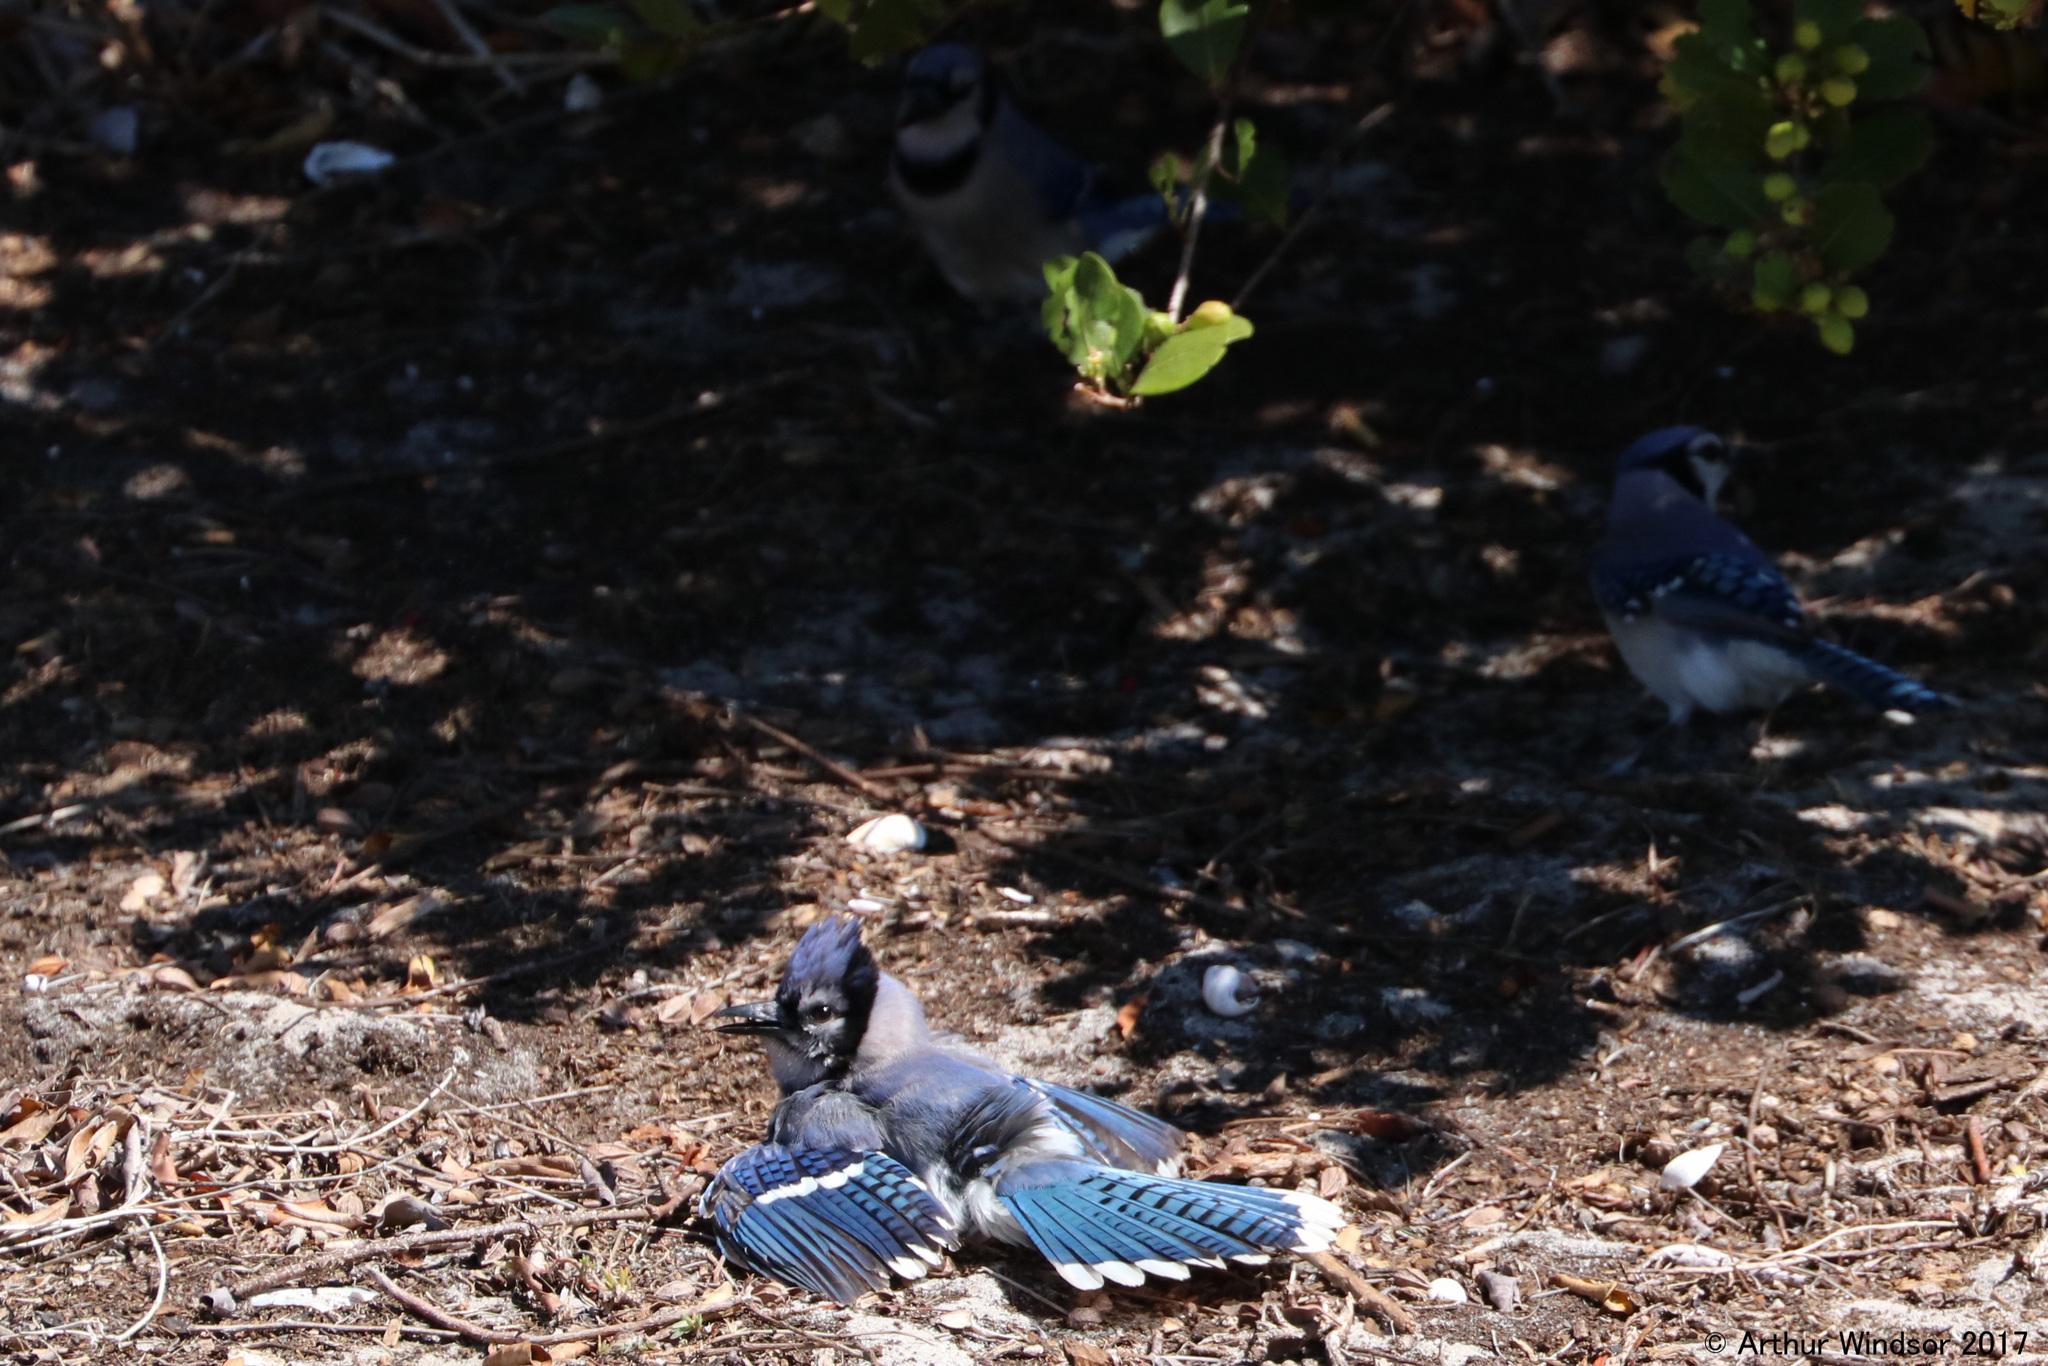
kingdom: Animalia
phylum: Chordata
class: Aves
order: Passeriformes
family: Corvidae
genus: Cyanocitta
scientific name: Cyanocitta cristata
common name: Blue jay
